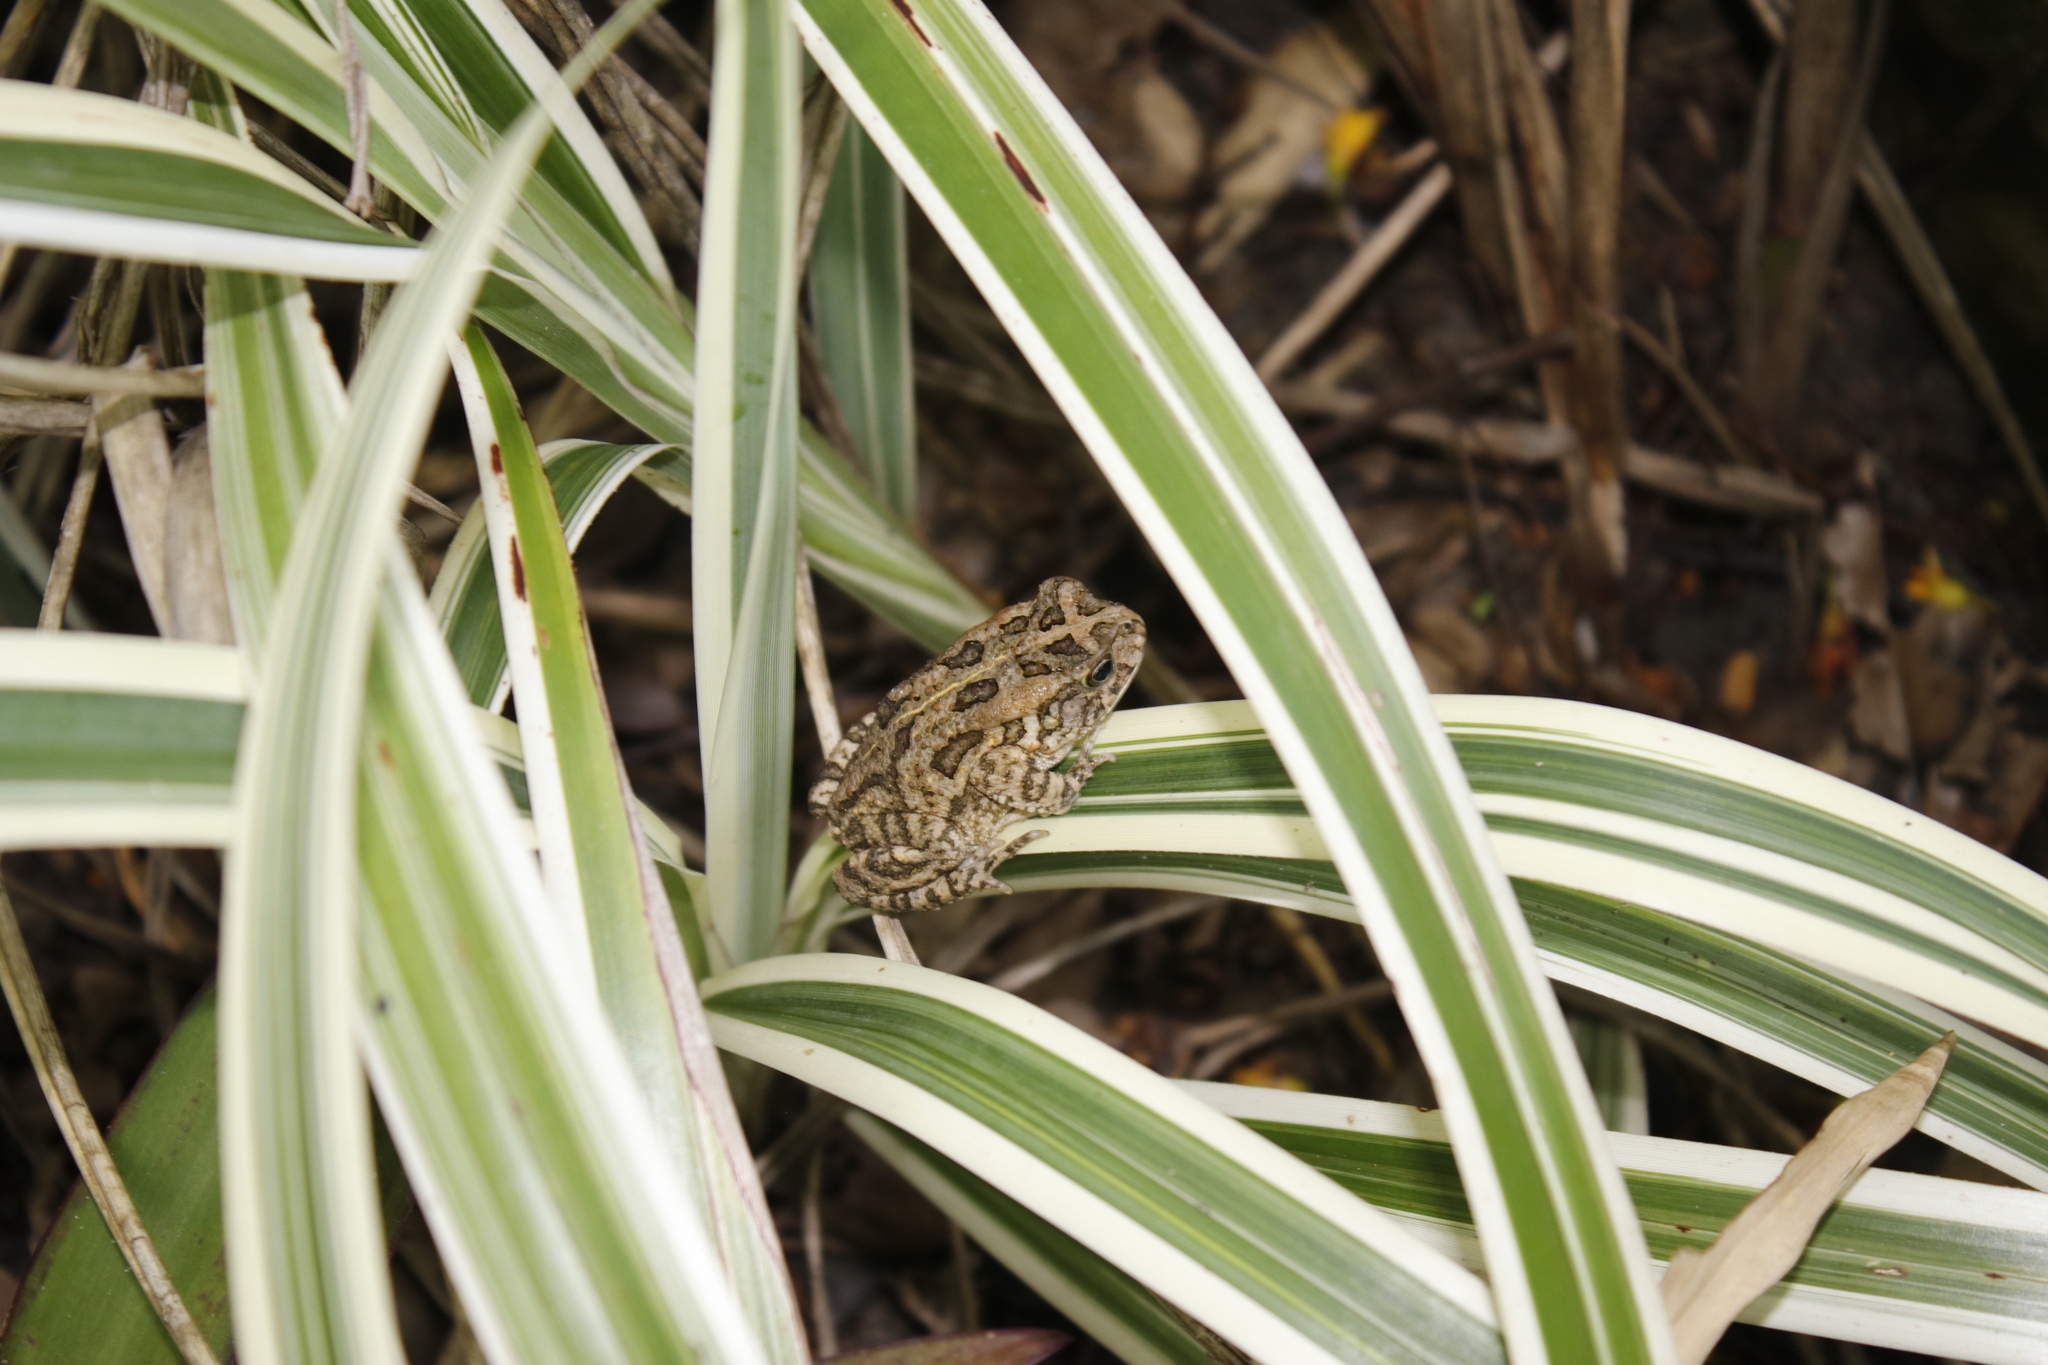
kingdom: Animalia
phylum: Chordata
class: Amphibia
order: Anura
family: Bufonidae
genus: Sclerophrys
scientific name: Sclerophrys gutturalis
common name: African common toad
